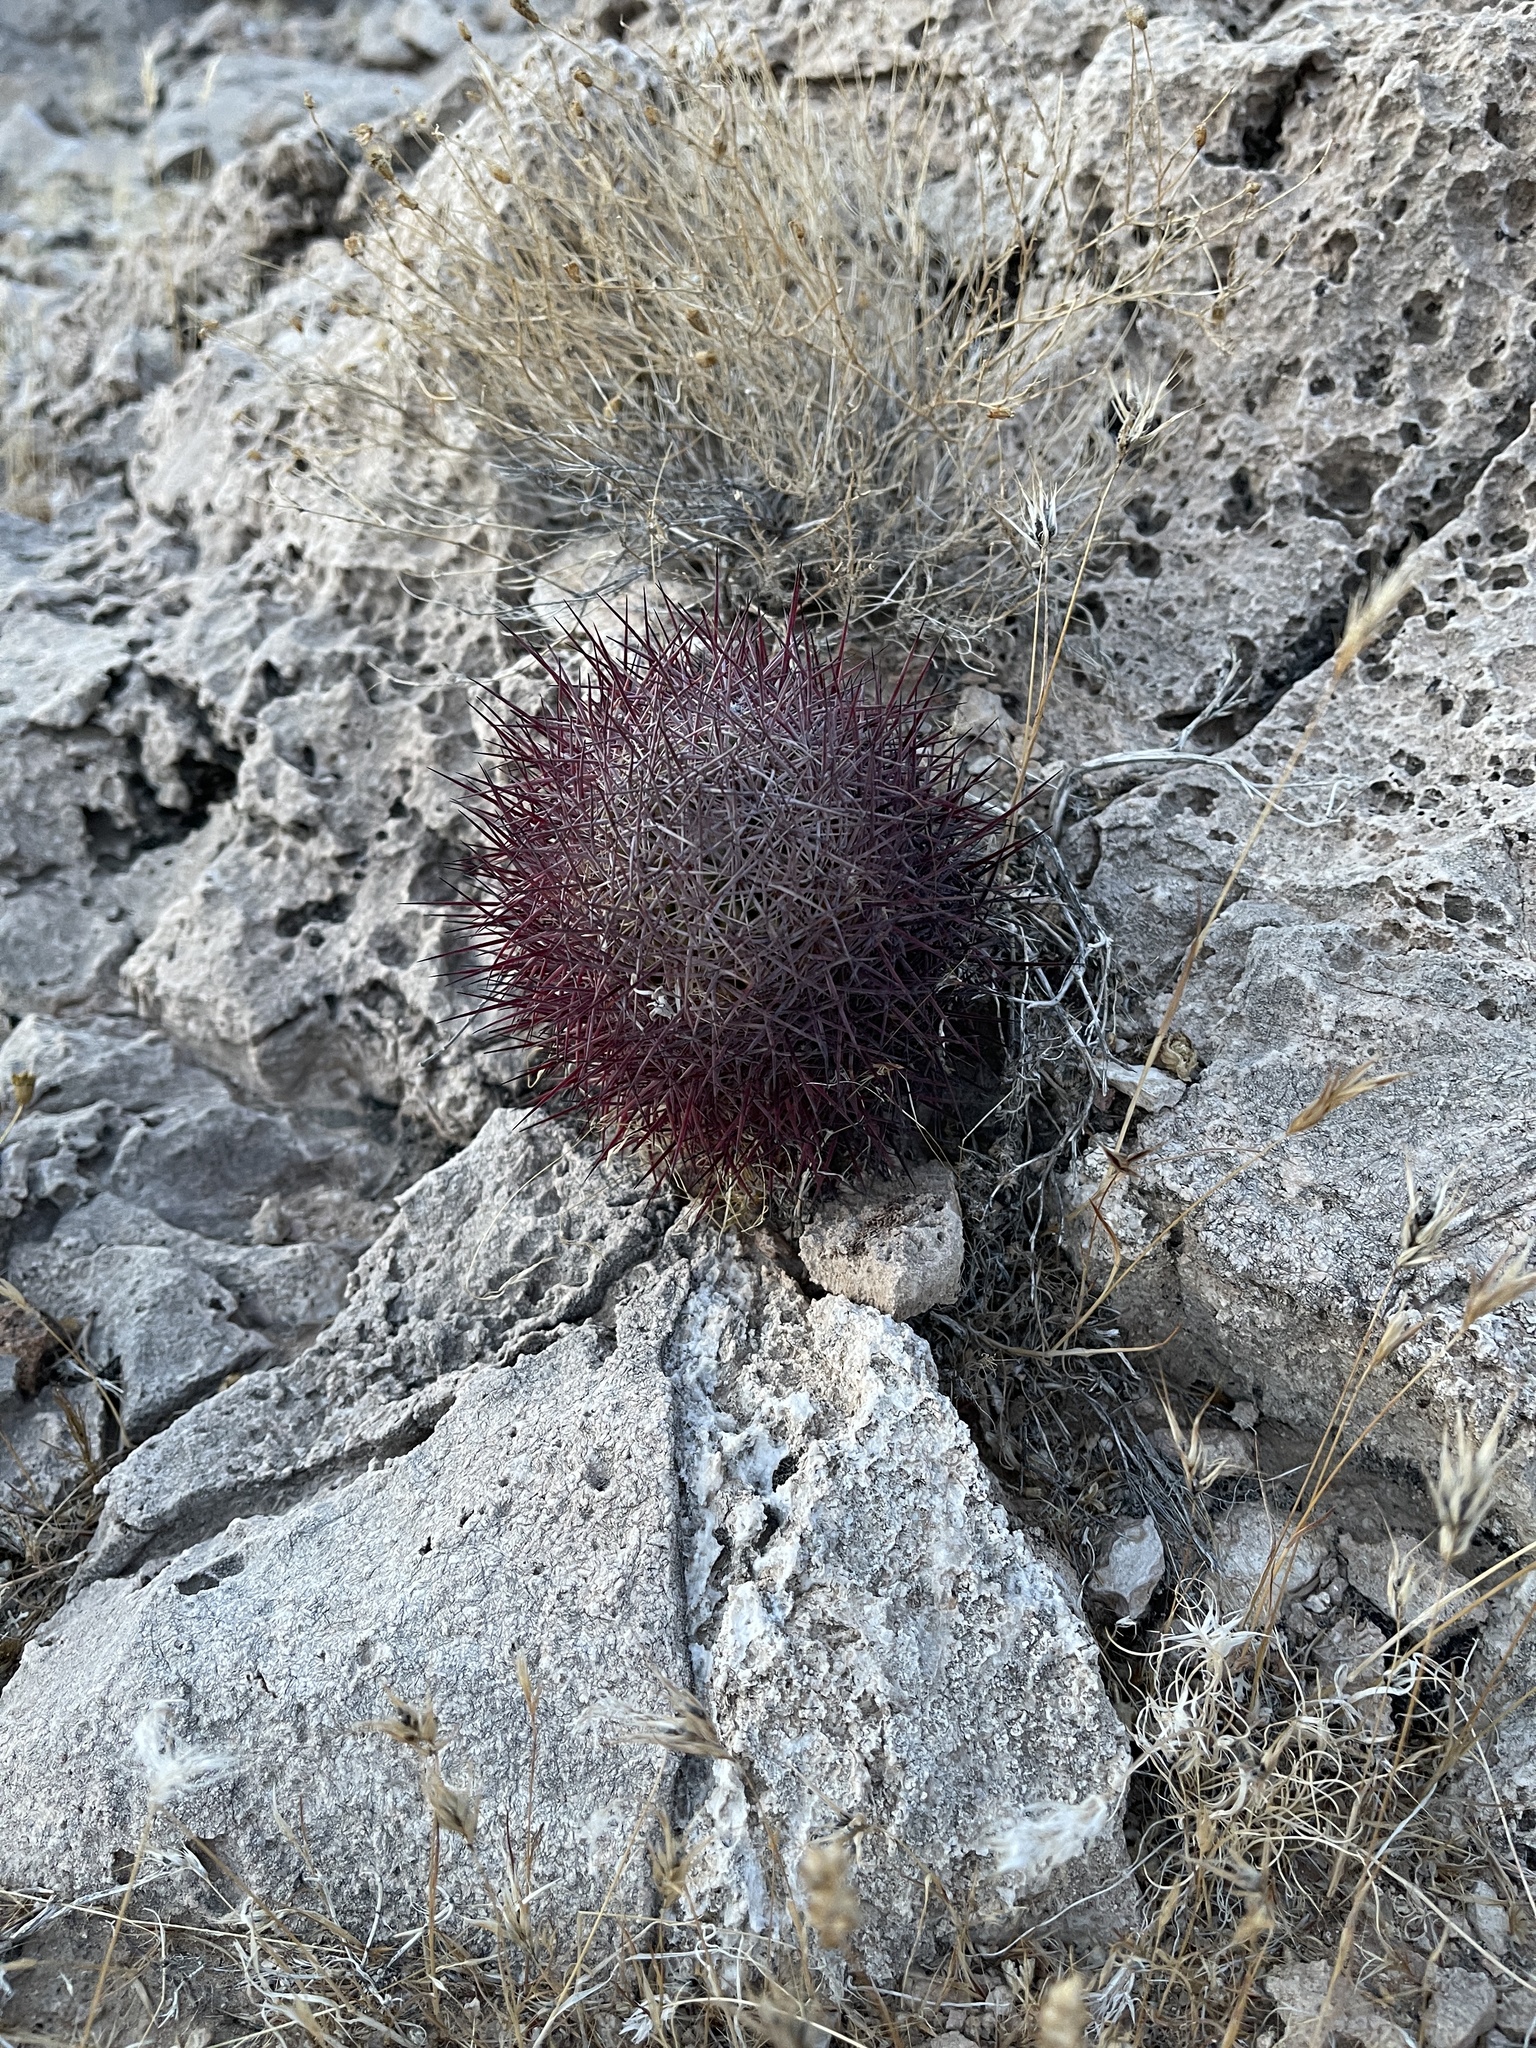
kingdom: Plantae
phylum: Tracheophyta
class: Magnoliopsida
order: Caryophyllales
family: Cactaceae
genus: Sclerocactus
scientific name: Sclerocactus johnsonii
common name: Eight-spine fishhook cactus
